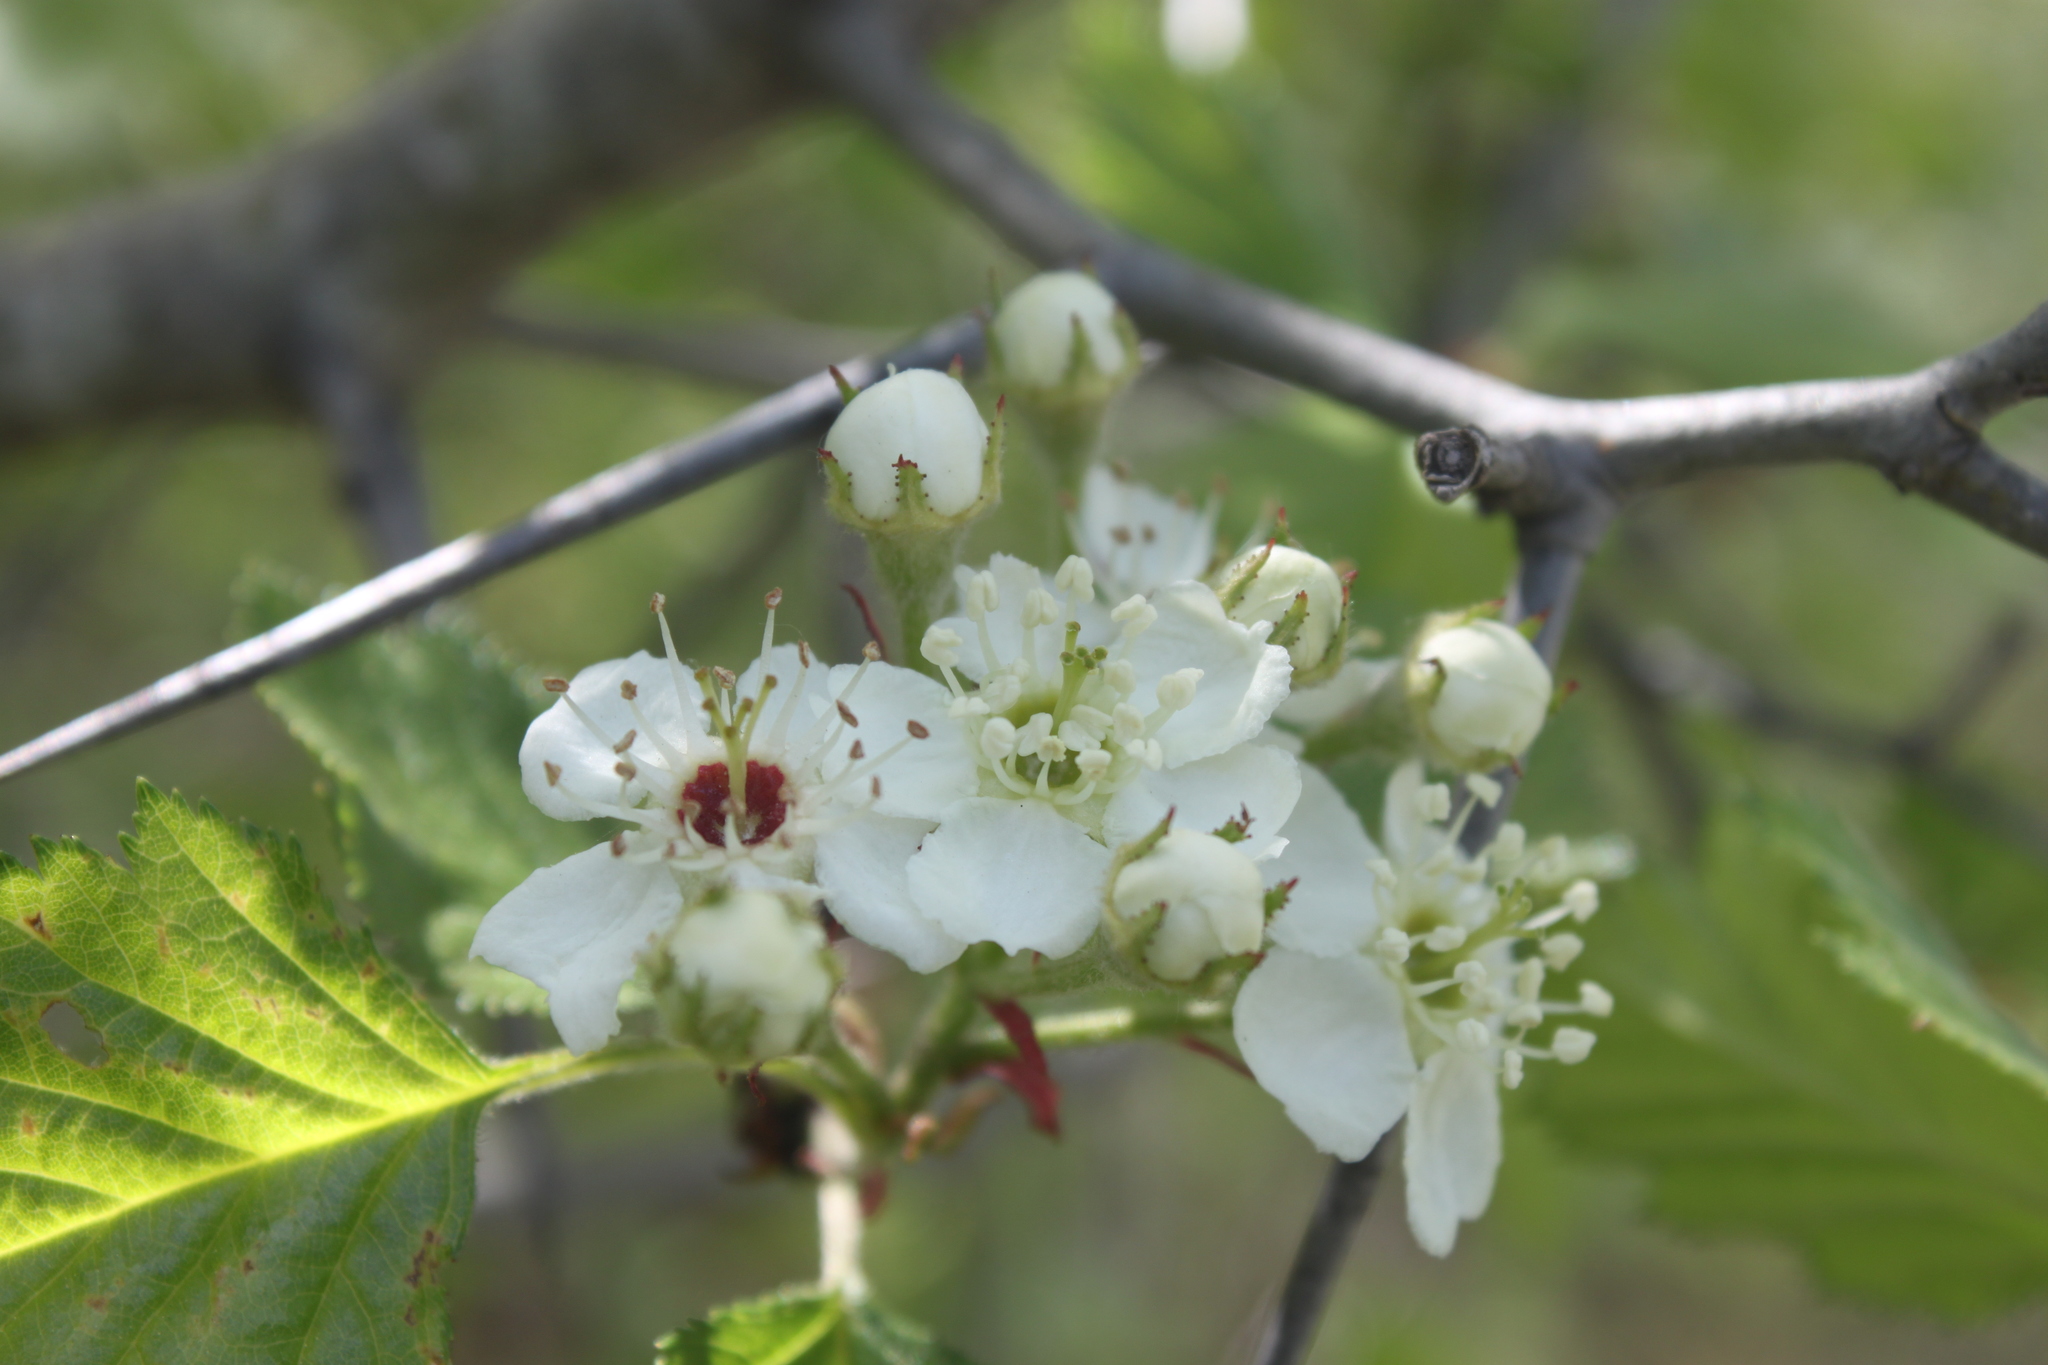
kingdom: Plantae
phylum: Tracheophyta
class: Magnoliopsida
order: Rosales
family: Rosaceae
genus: Crataegus
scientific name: Crataegus submollis
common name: Hairy cockspurthorn
